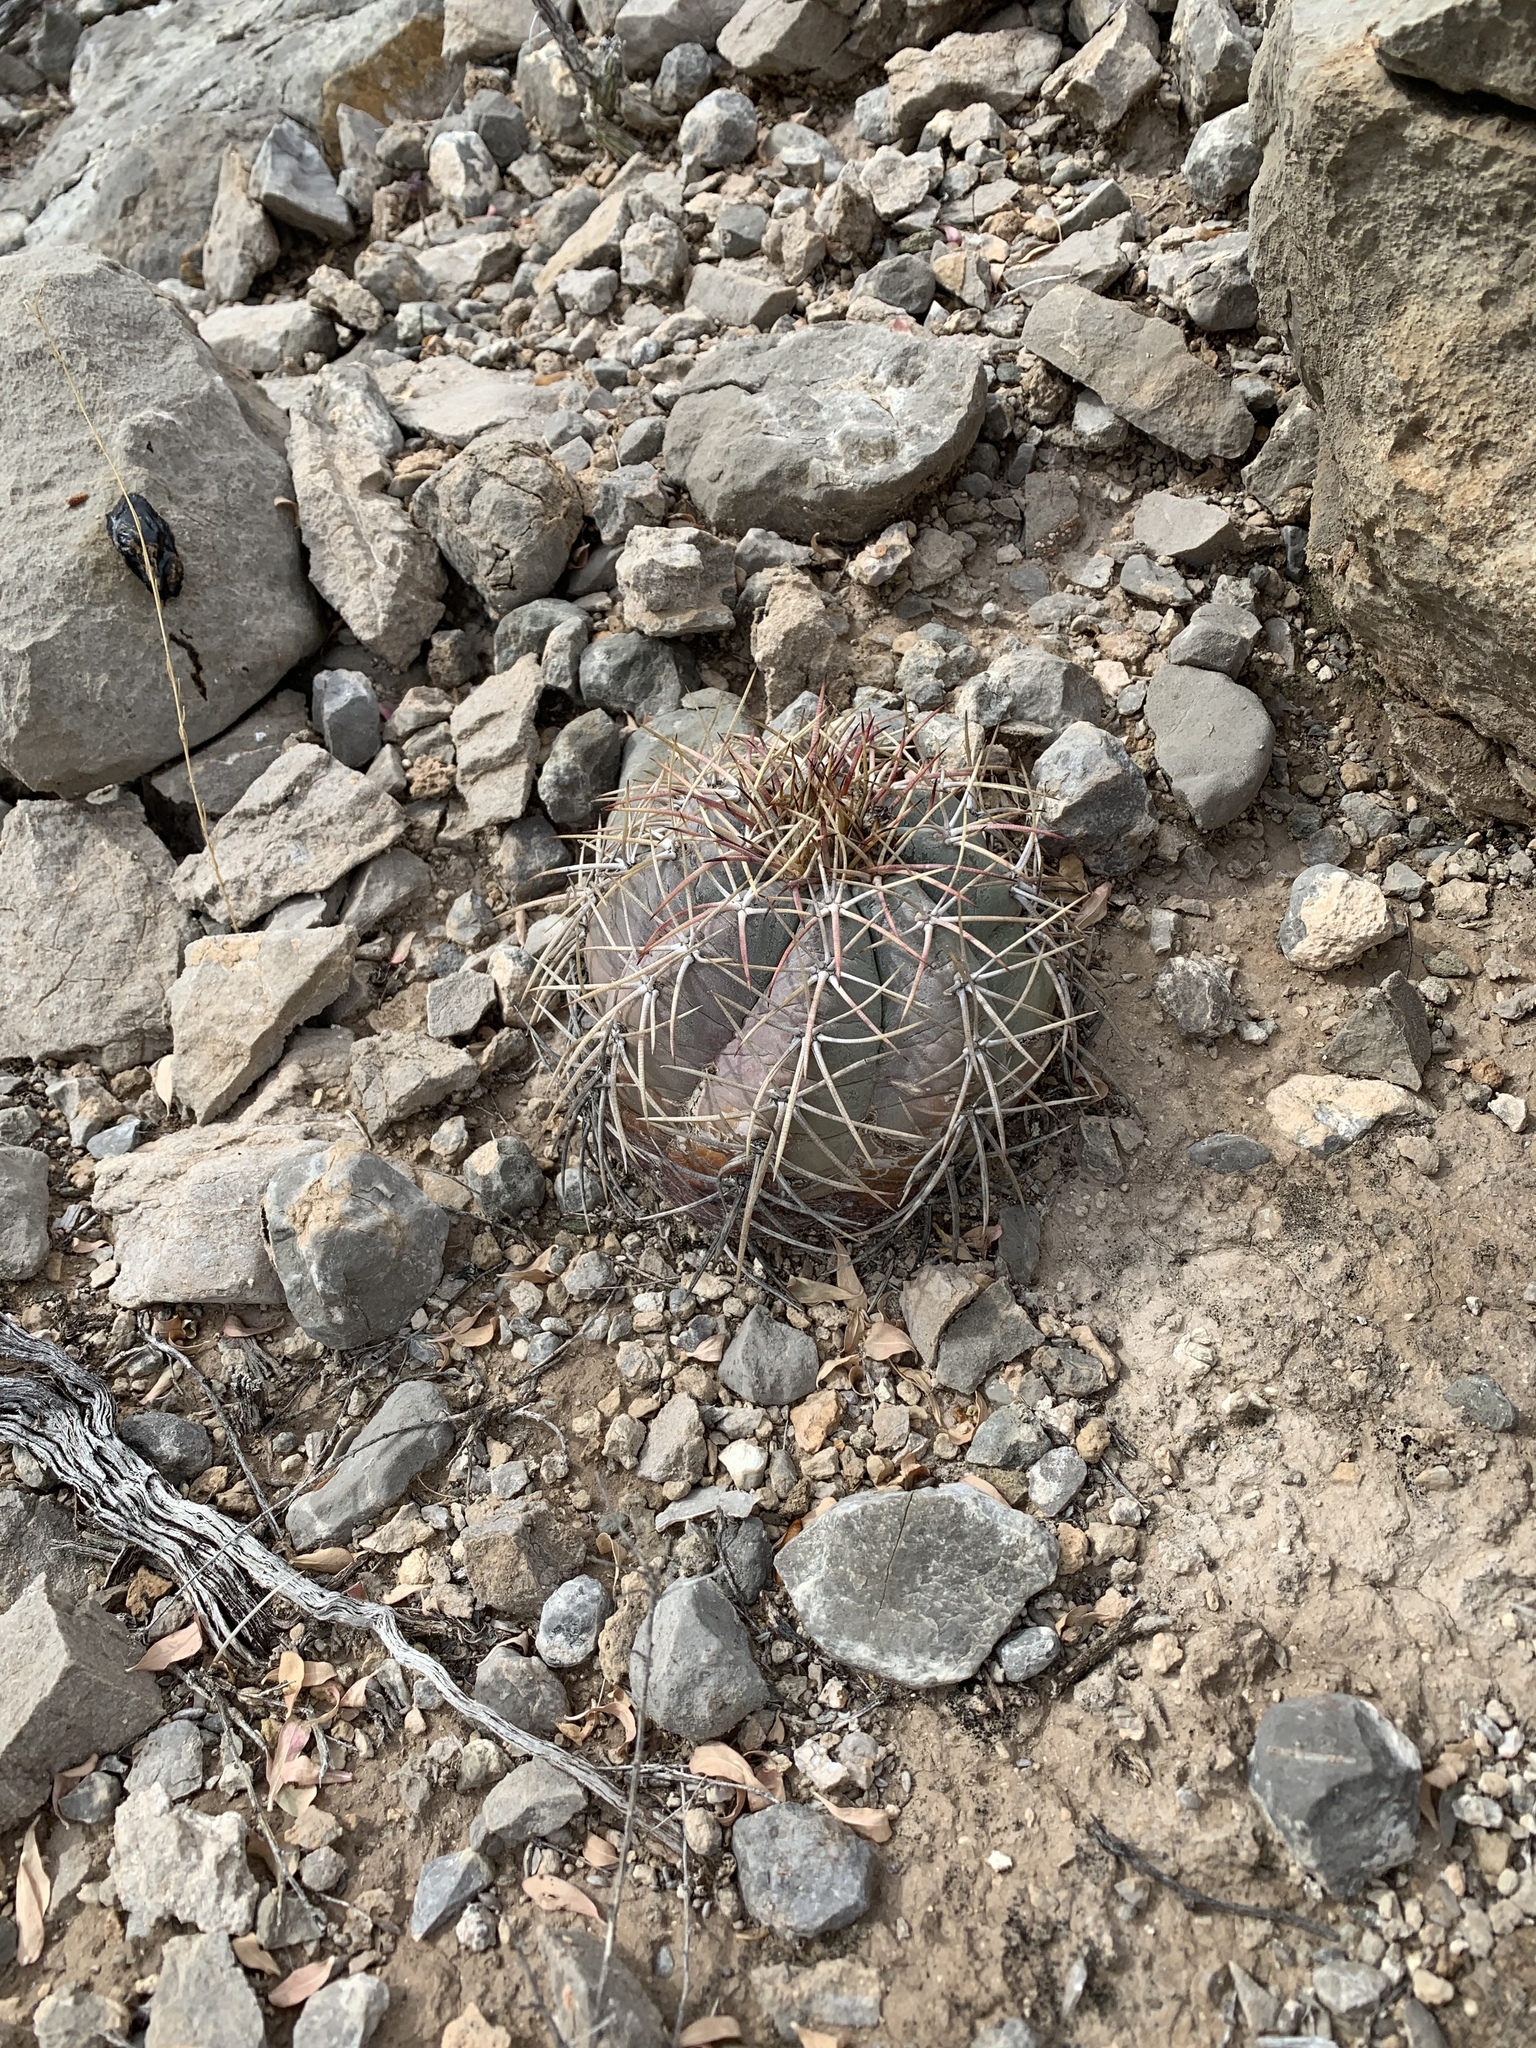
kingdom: Plantae
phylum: Tracheophyta
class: Magnoliopsida
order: Caryophyllales
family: Cactaceae
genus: Echinocactus
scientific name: Echinocactus horizonthalonius
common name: Devilshead
